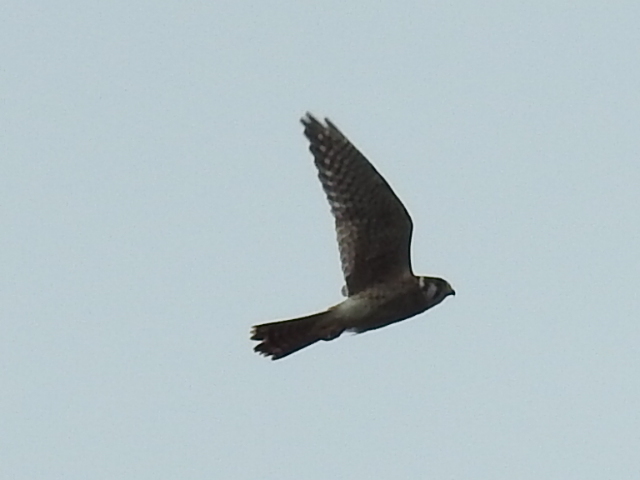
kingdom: Animalia
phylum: Chordata
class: Aves
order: Falconiformes
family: Falconidae
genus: Falco
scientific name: Falco sparverius
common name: American kestrel
